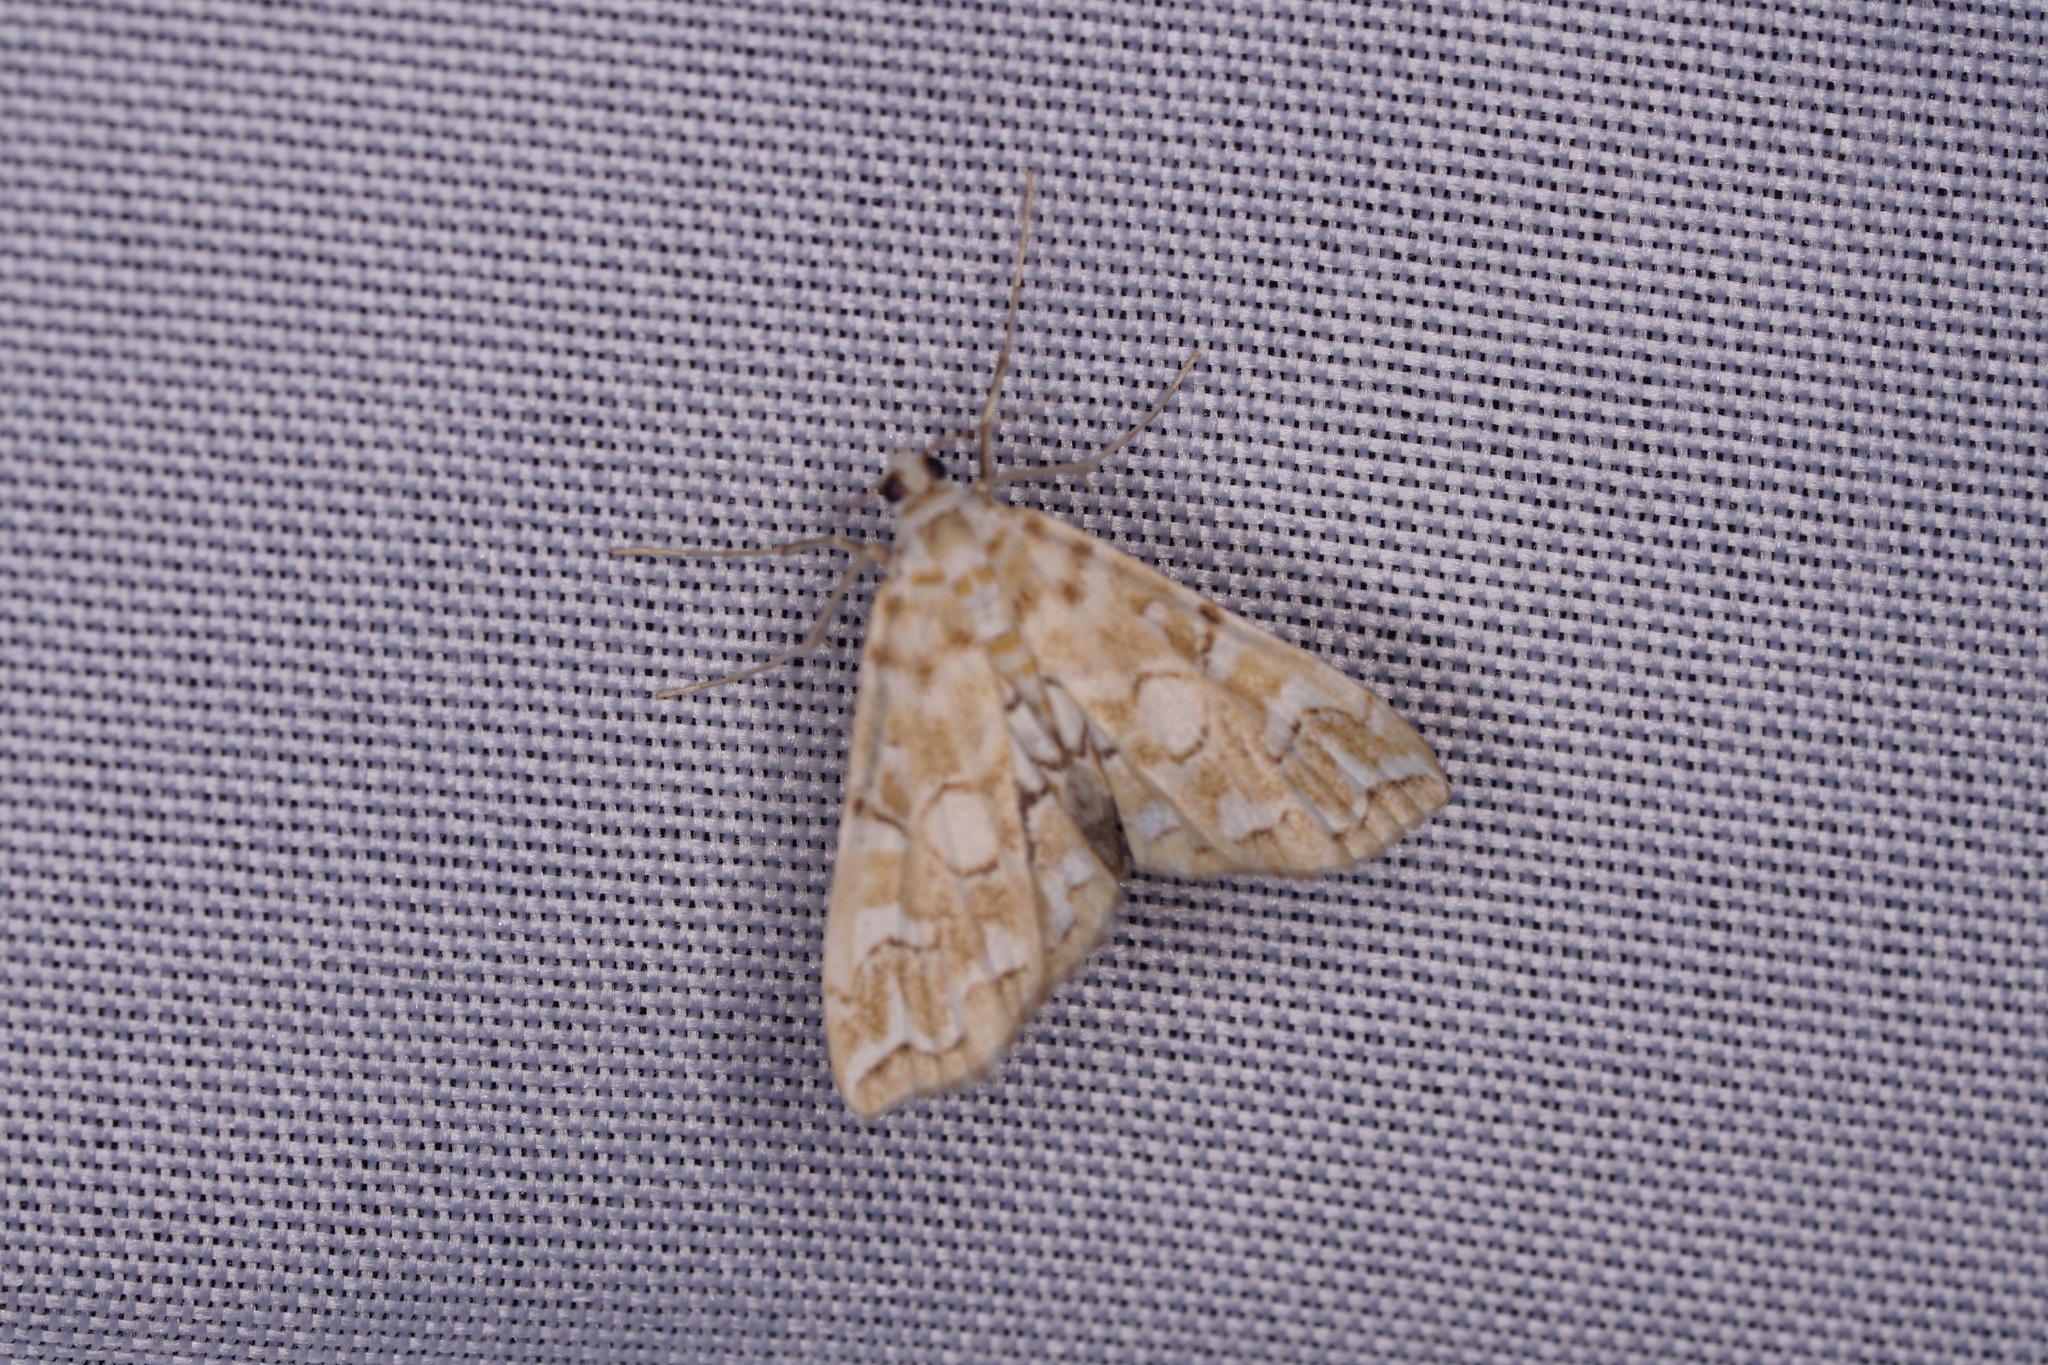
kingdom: Animalia
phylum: Arthropoda
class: Insecta
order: Lepidoptera
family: Crambidae
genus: Elophila
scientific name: Elophila icciusalis
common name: Pondside pyralid moth
